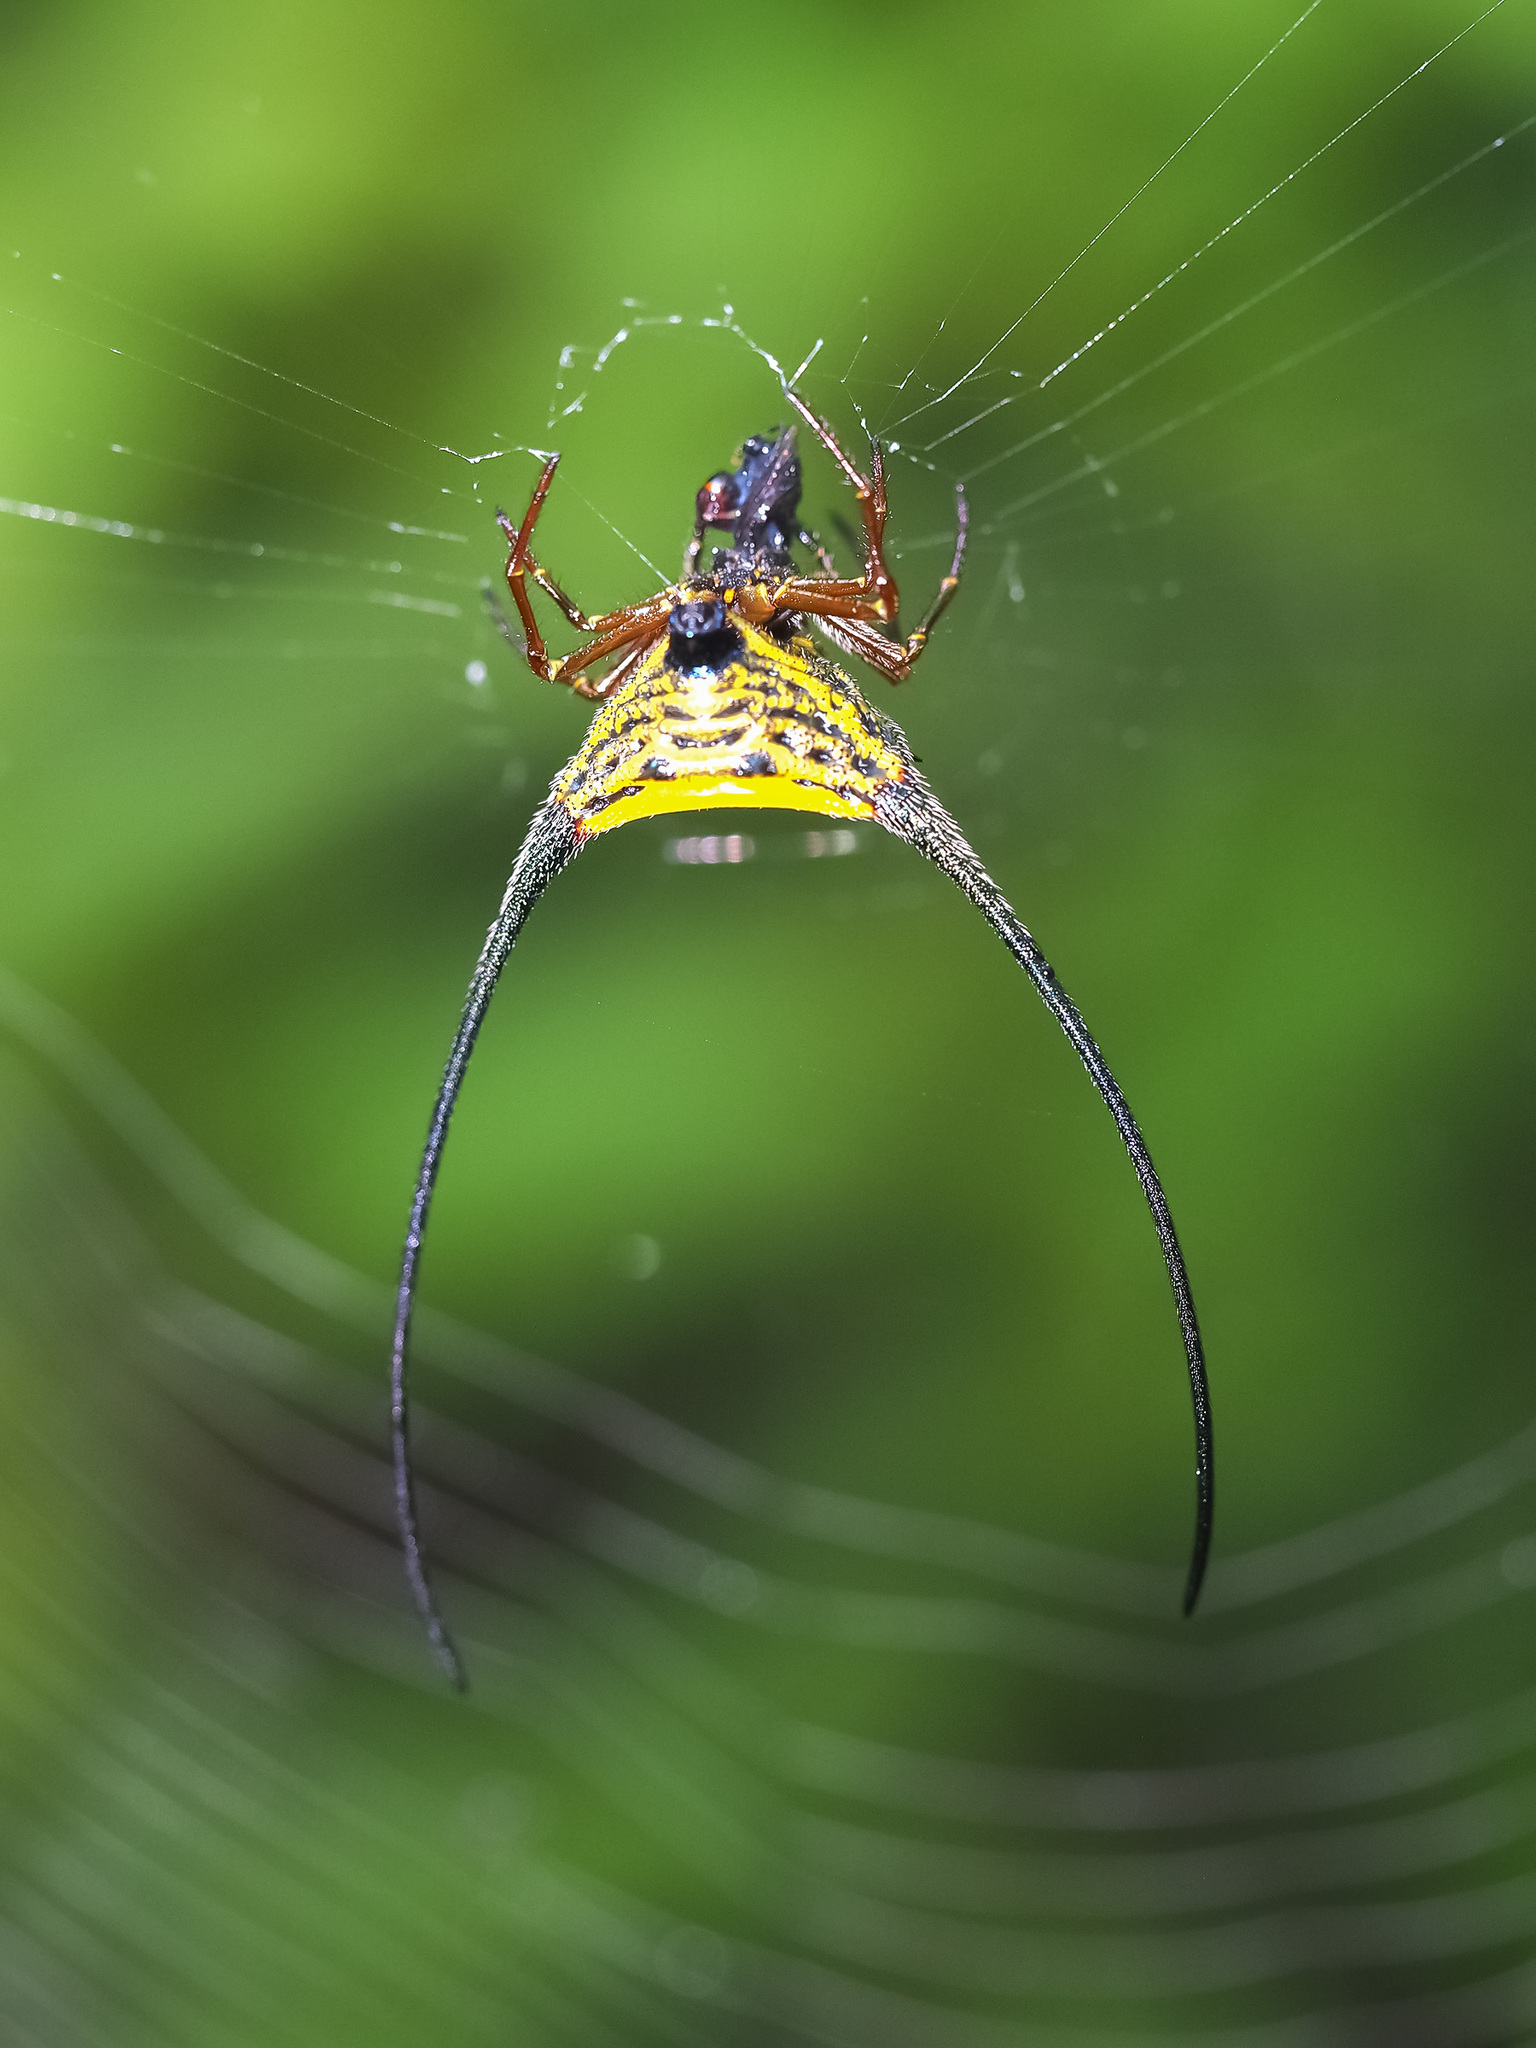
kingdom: Animalia
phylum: Arthropoda
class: Arachnida
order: Araneae
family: Araneidae
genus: Macracantha
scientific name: Macracantha arcuata
